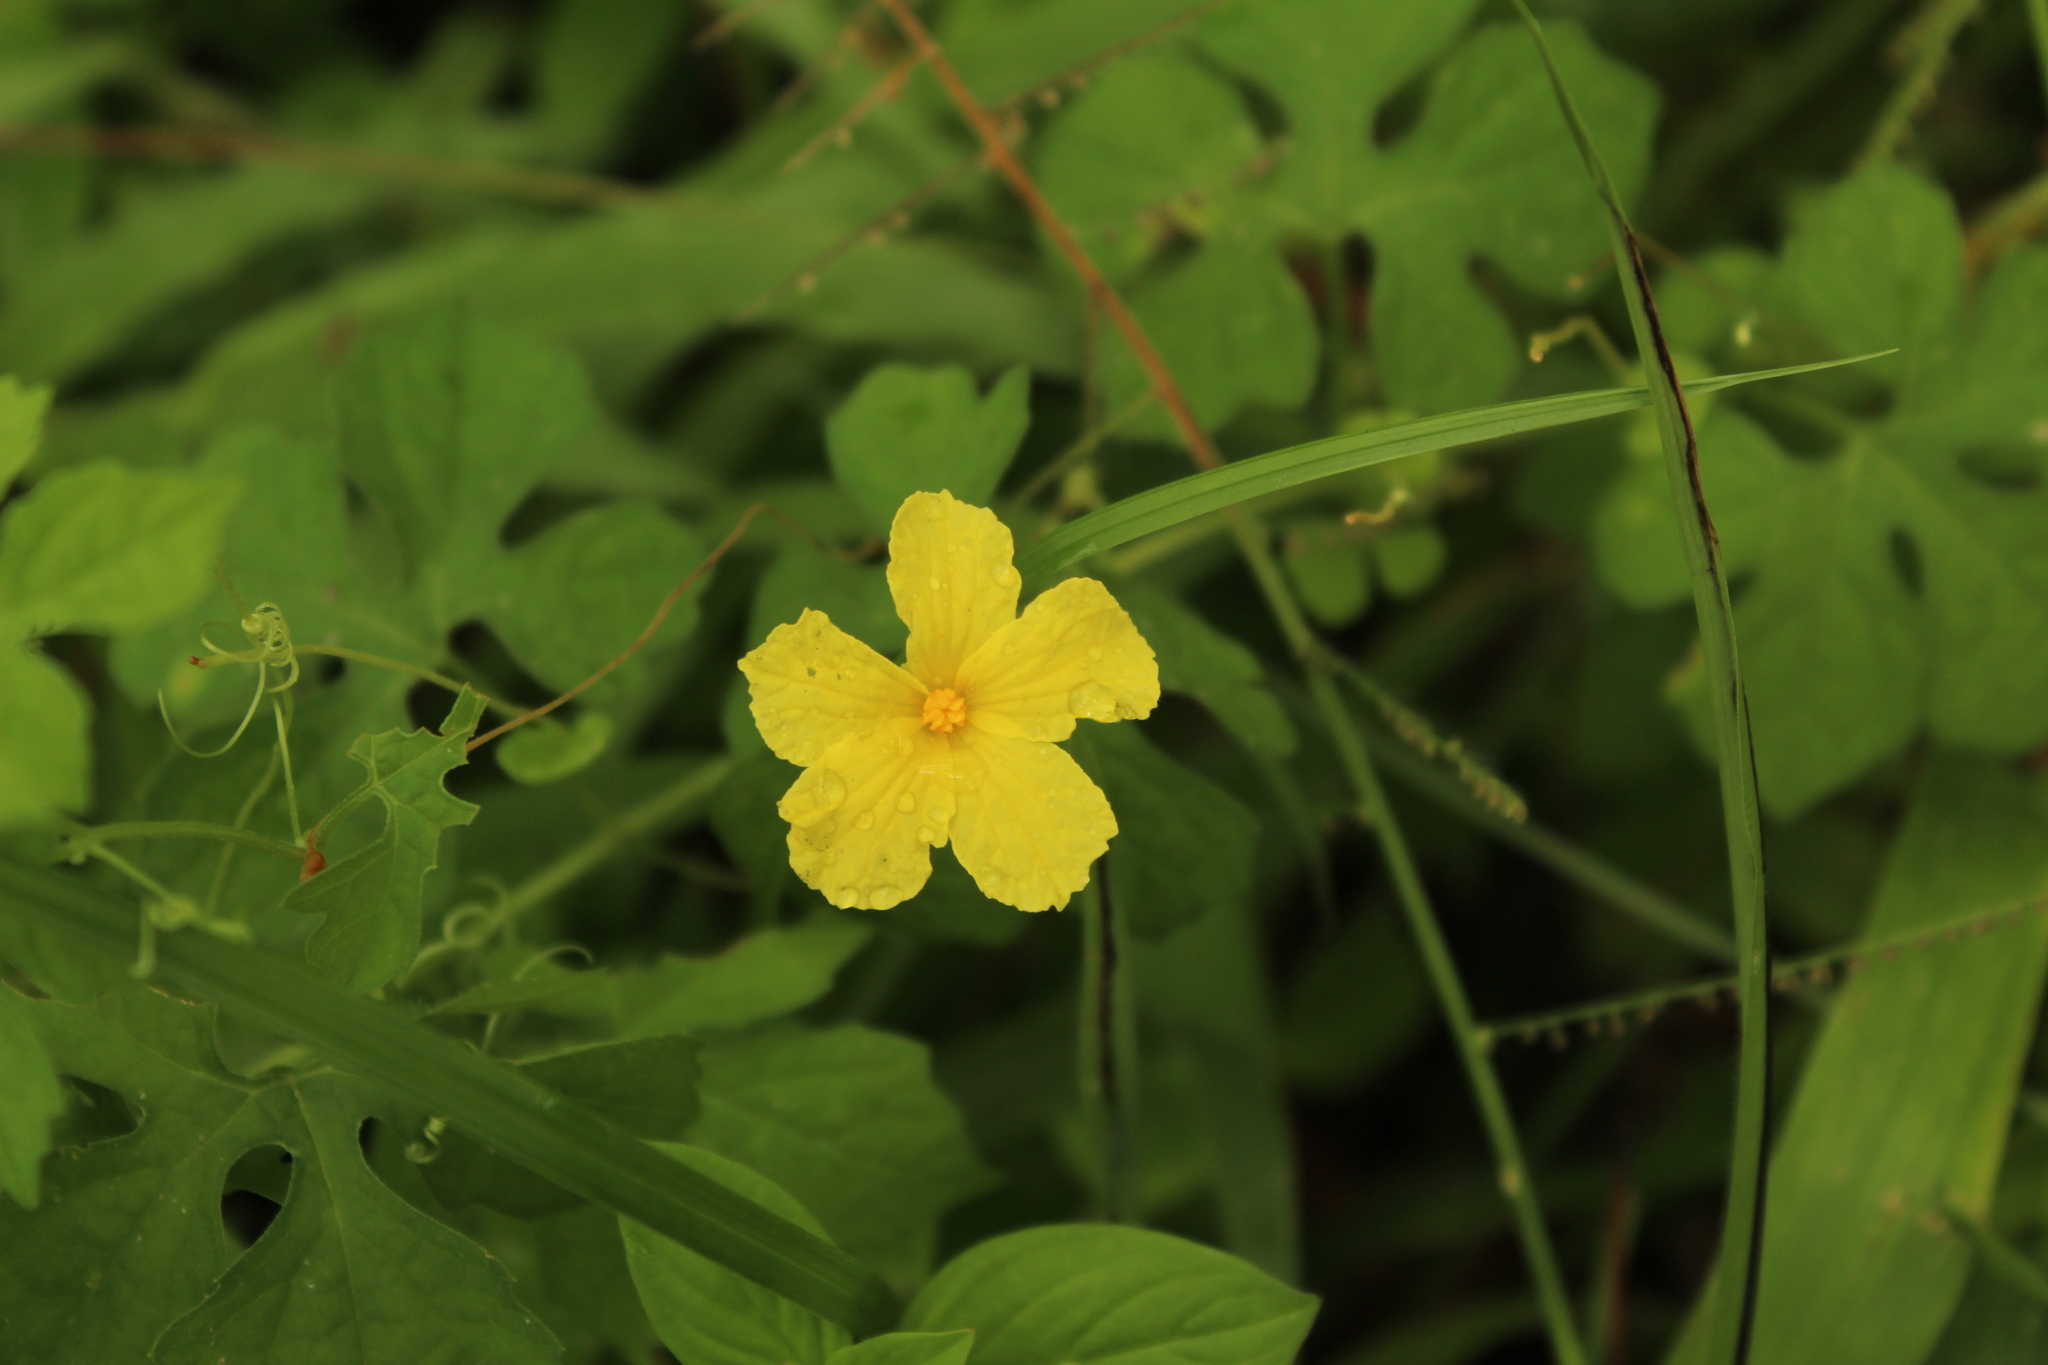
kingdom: Plantae
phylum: Tracheophyta
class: Magnoliopsida
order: Cucurbitales
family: Cucurbitaceae
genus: Momordica
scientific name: Momordica charantia
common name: Balsampear
